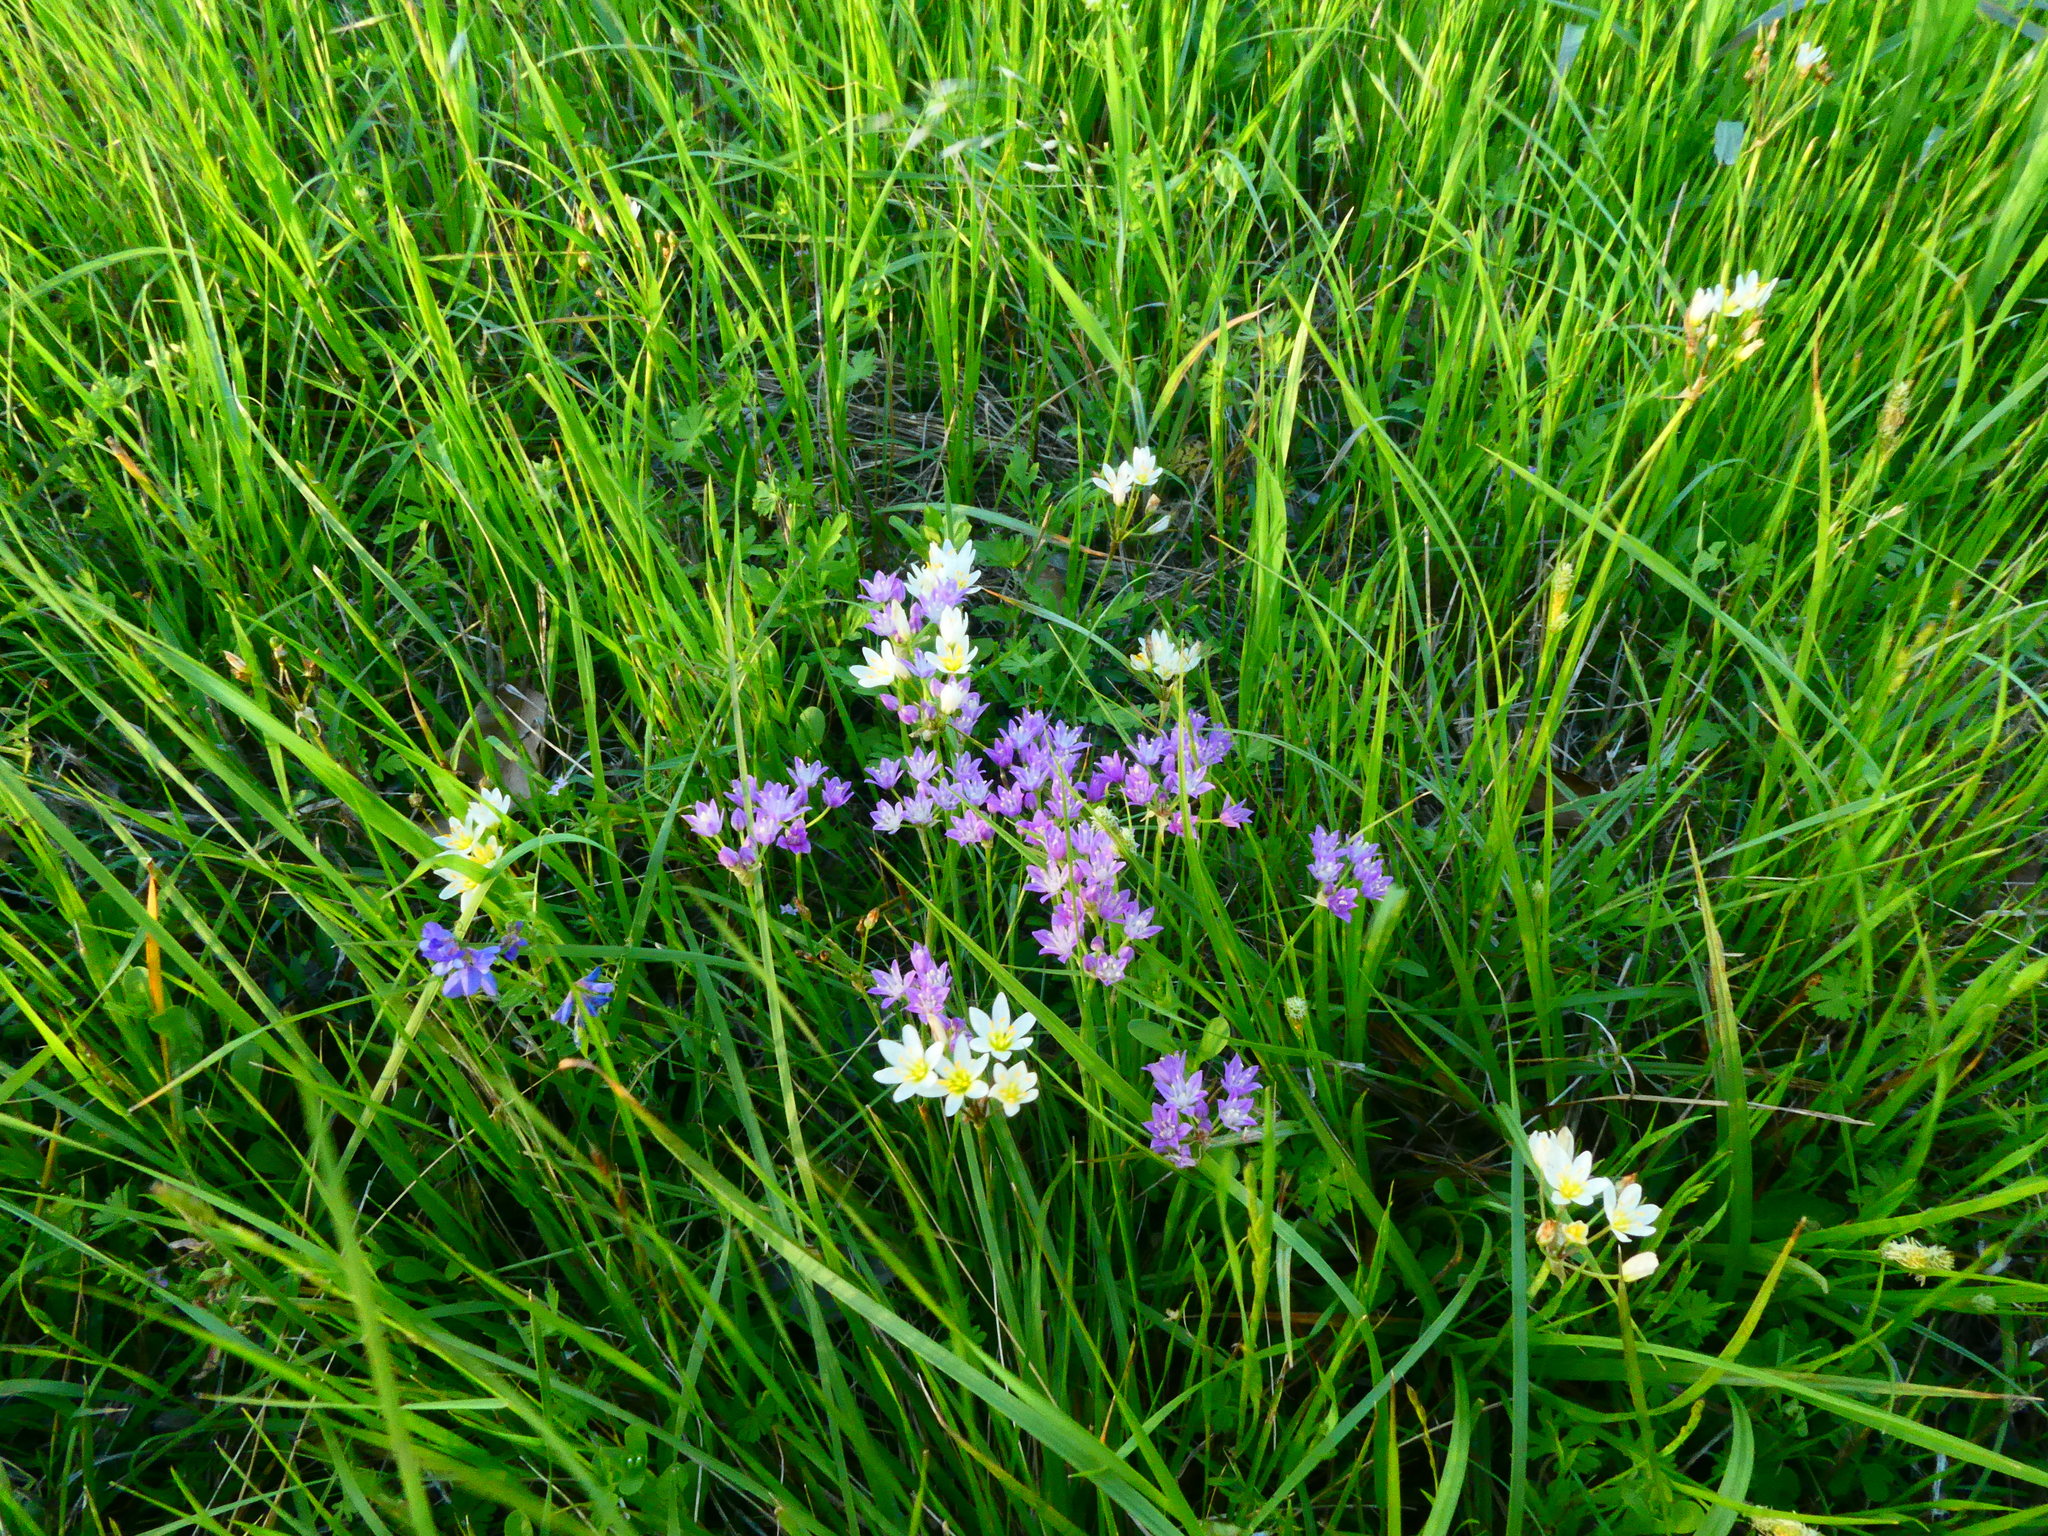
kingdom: Plantae
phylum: Tracheophyta
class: Liliopsida
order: Asparagales
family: Amaryllidaceae
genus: Nothoscordum
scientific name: Nothoscordum bivalve
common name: Crow-poison
